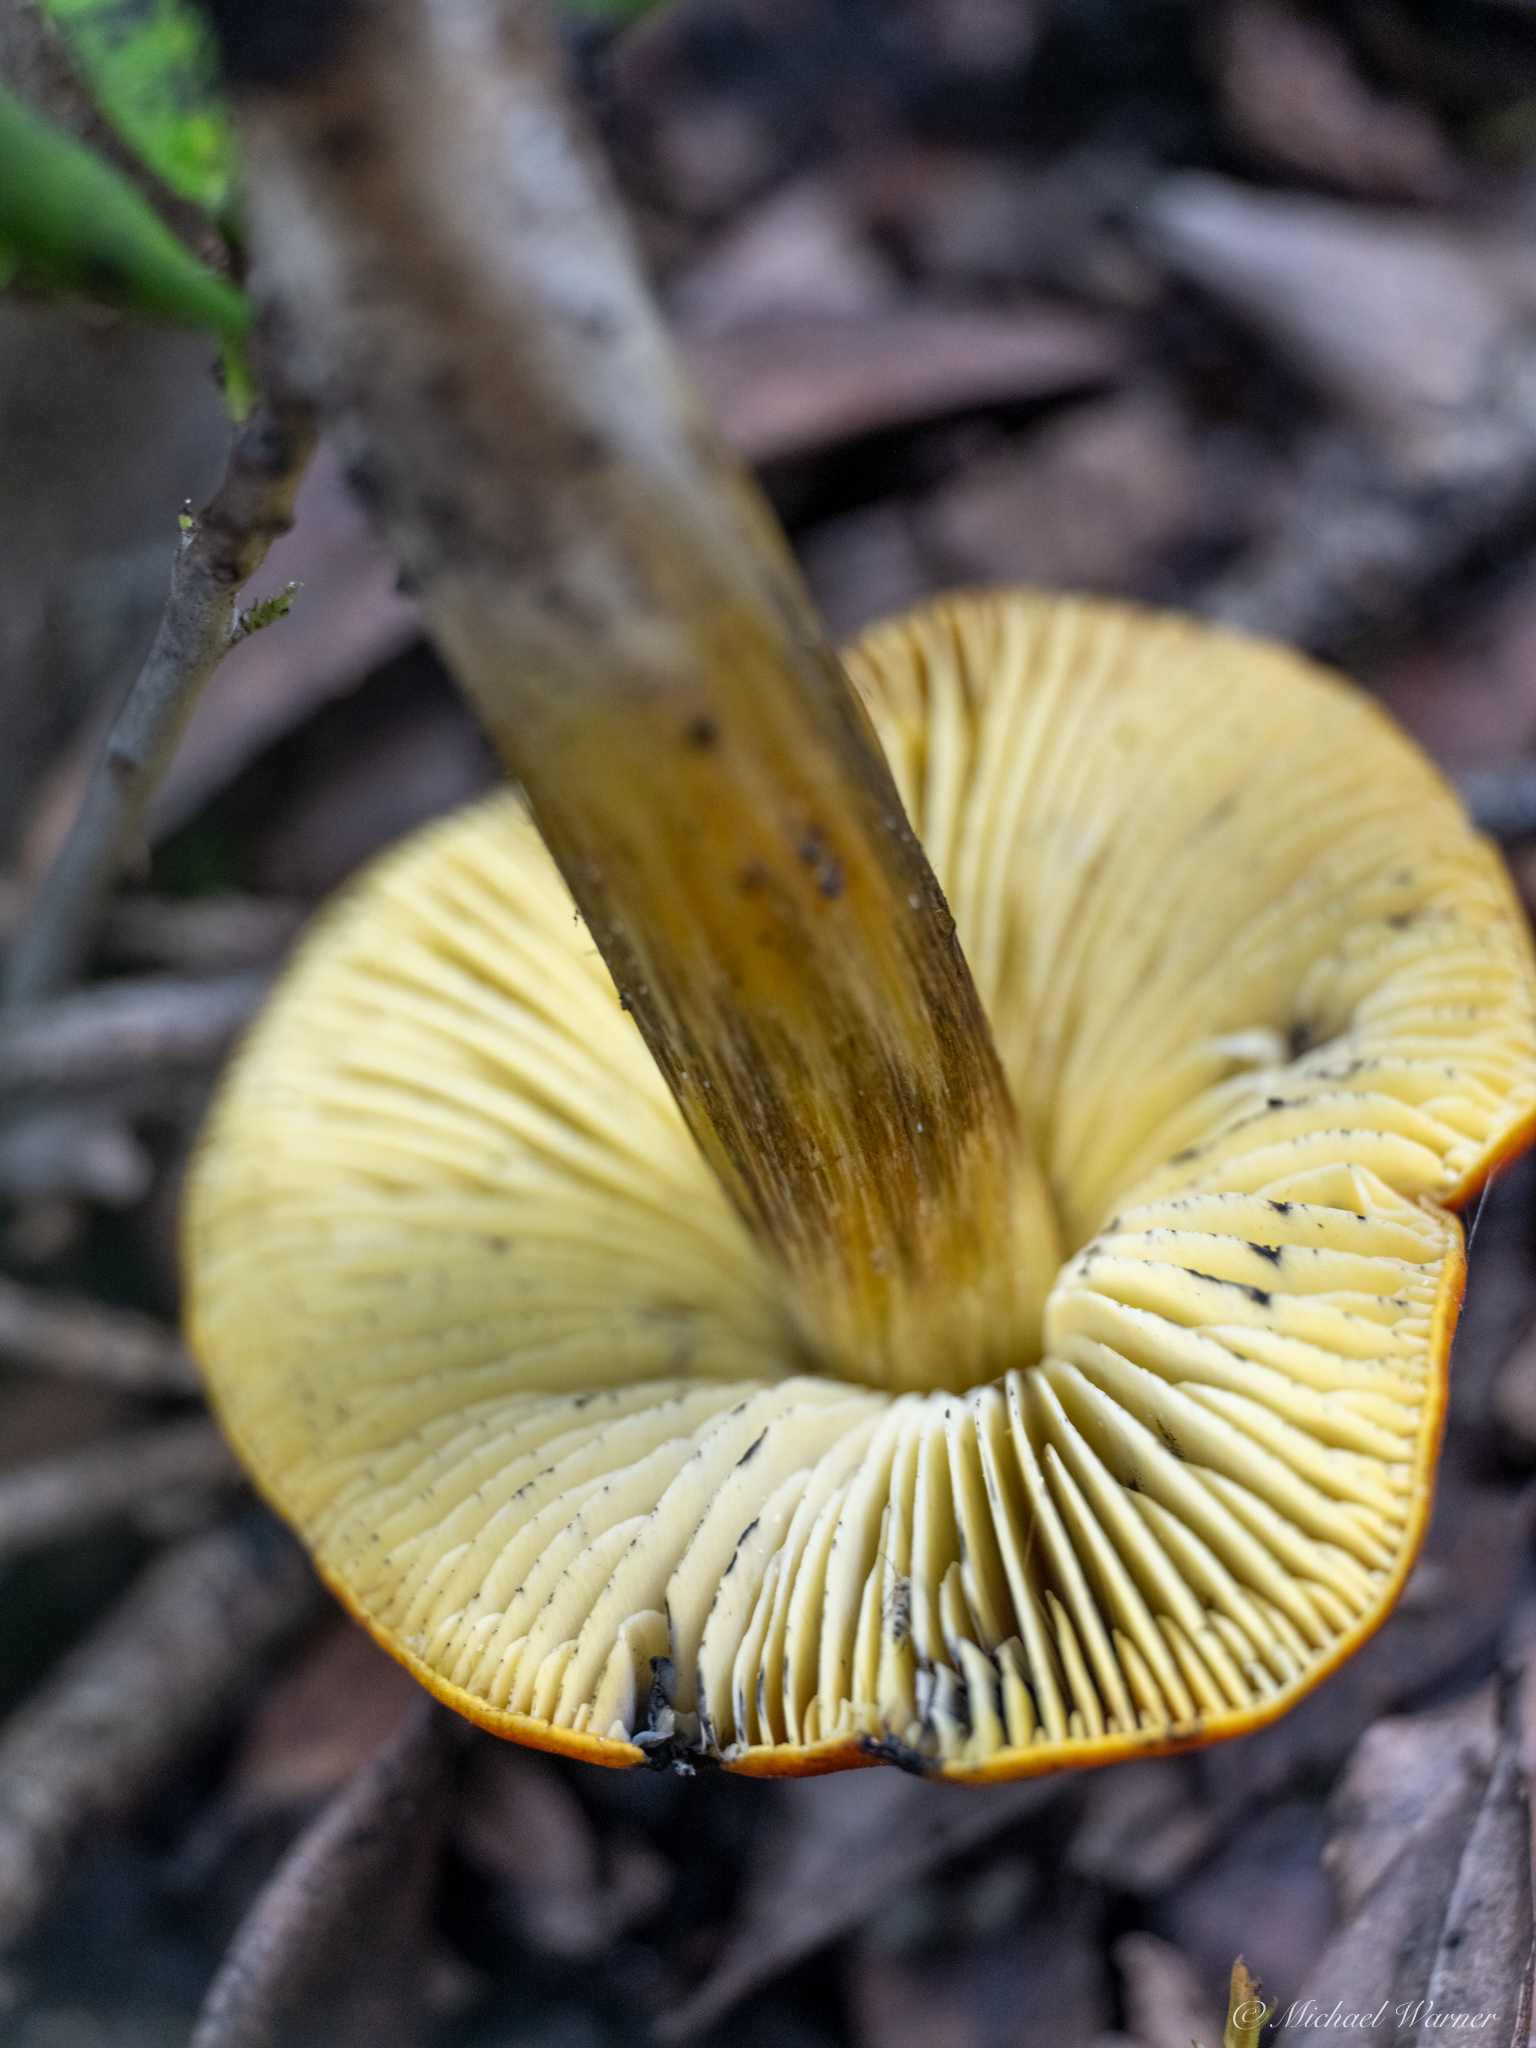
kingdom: Fungi
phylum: Basidiomycota
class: Agaricomycetes
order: Agaricales
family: Hygrophoraceae
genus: Hygrocybe
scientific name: Hygrocybe singeri
